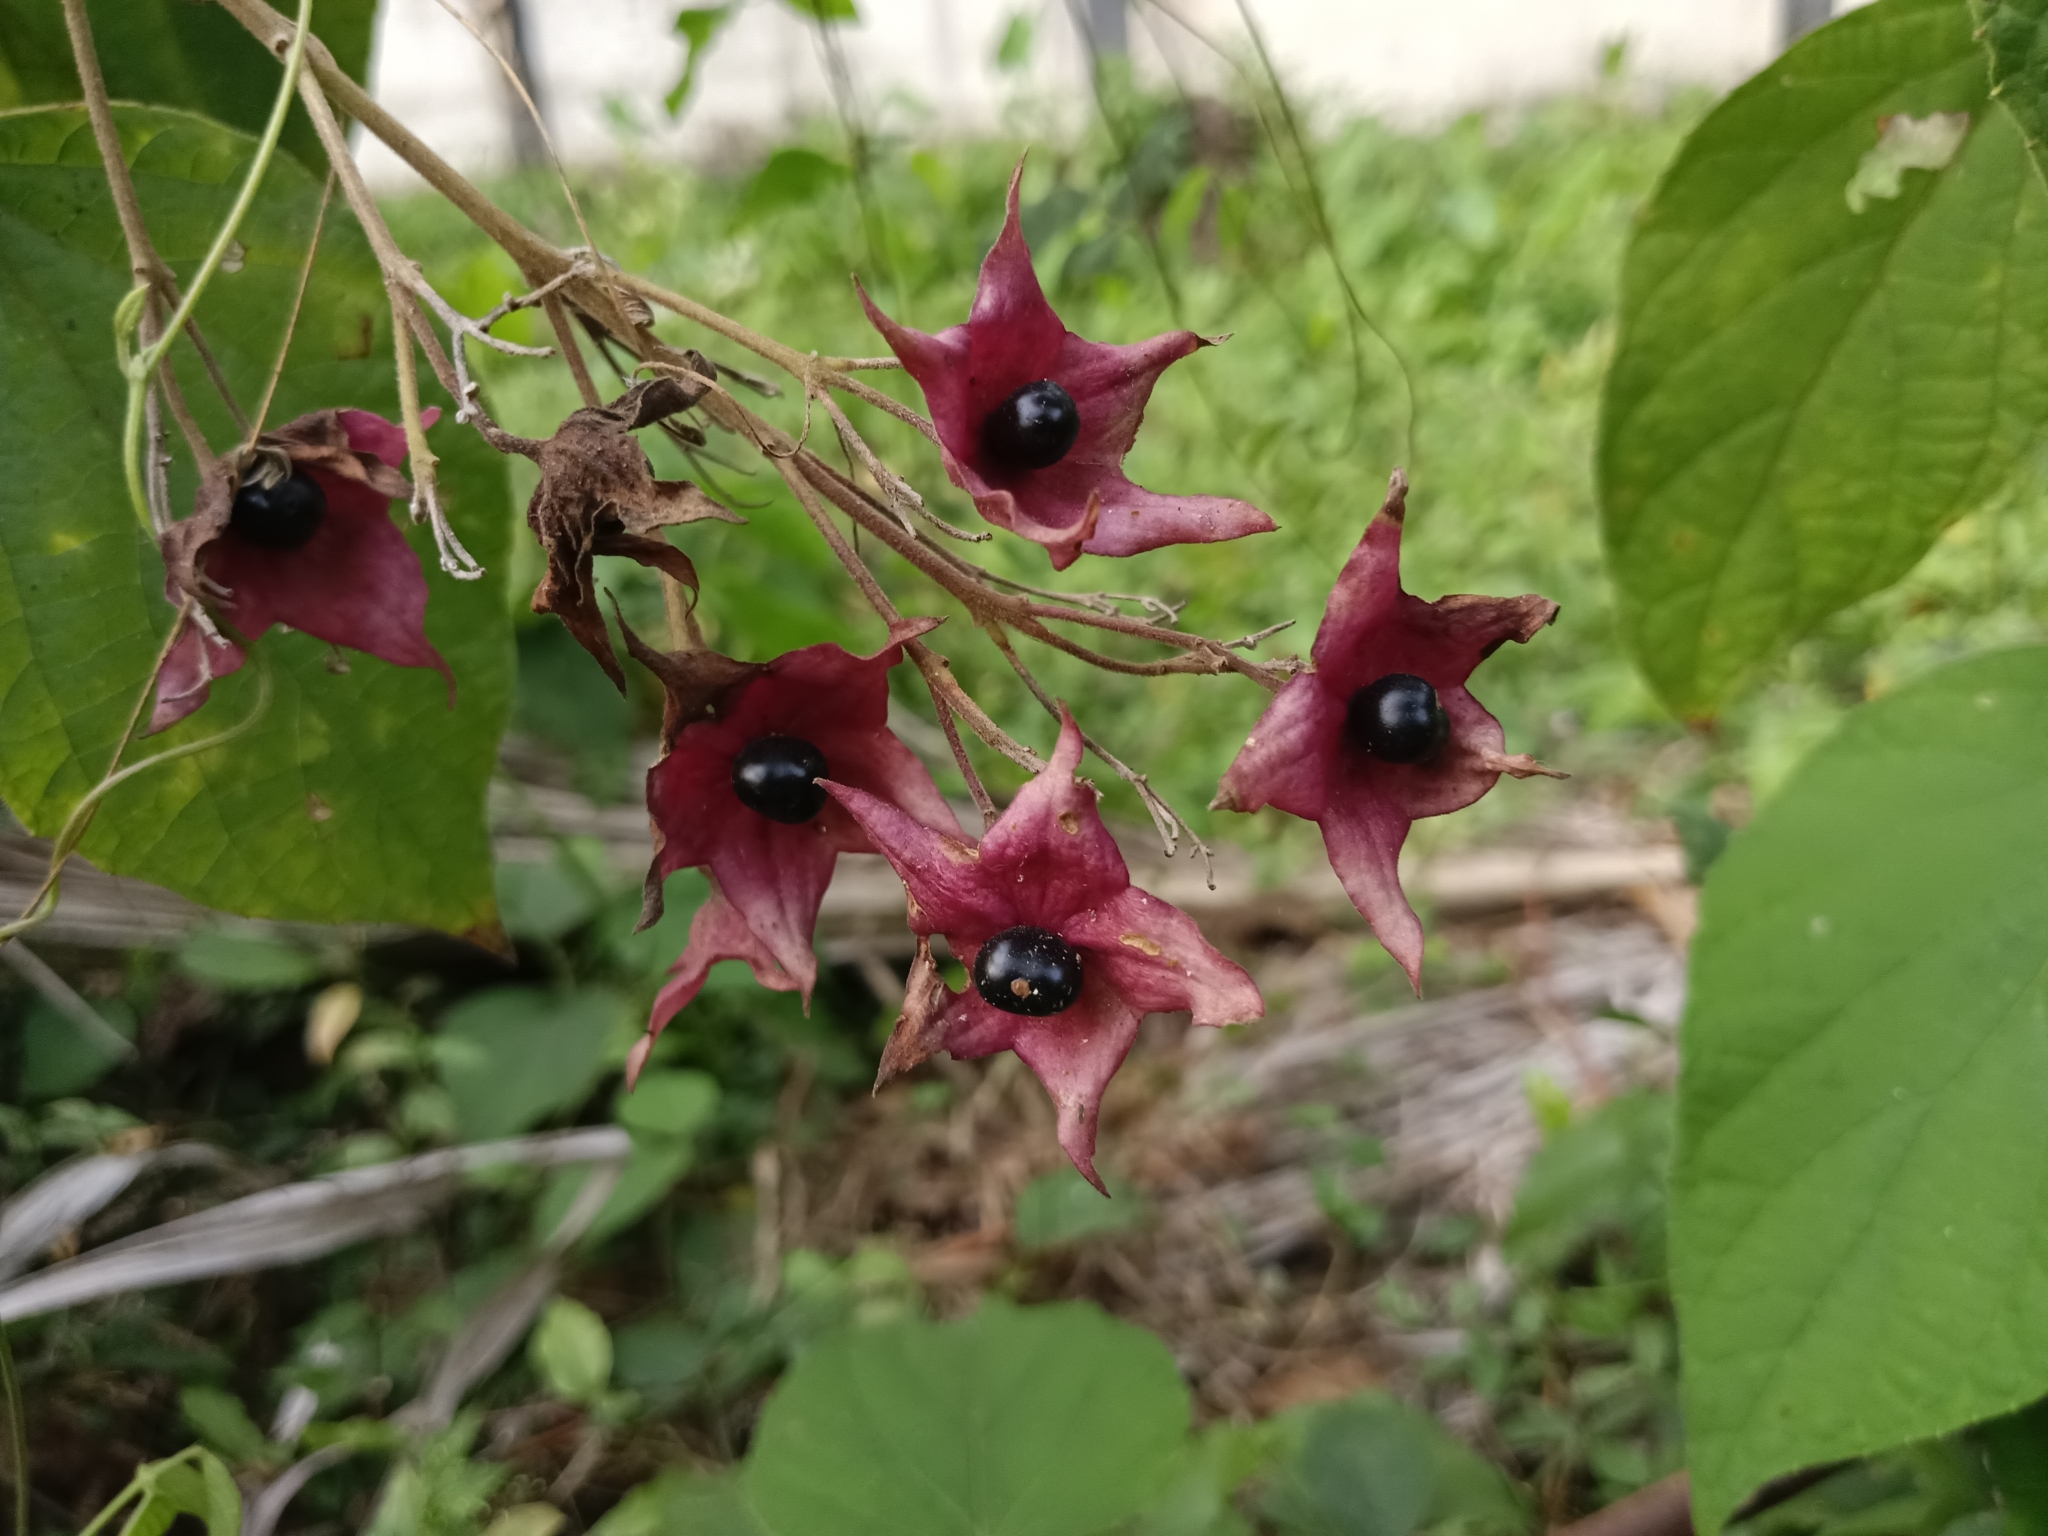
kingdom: Plantae
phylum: Tracheophyta
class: Magnoliopsida
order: Lamiales
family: Lamiaceae
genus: Clerodendrum
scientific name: Clerodendrum infortunatum
